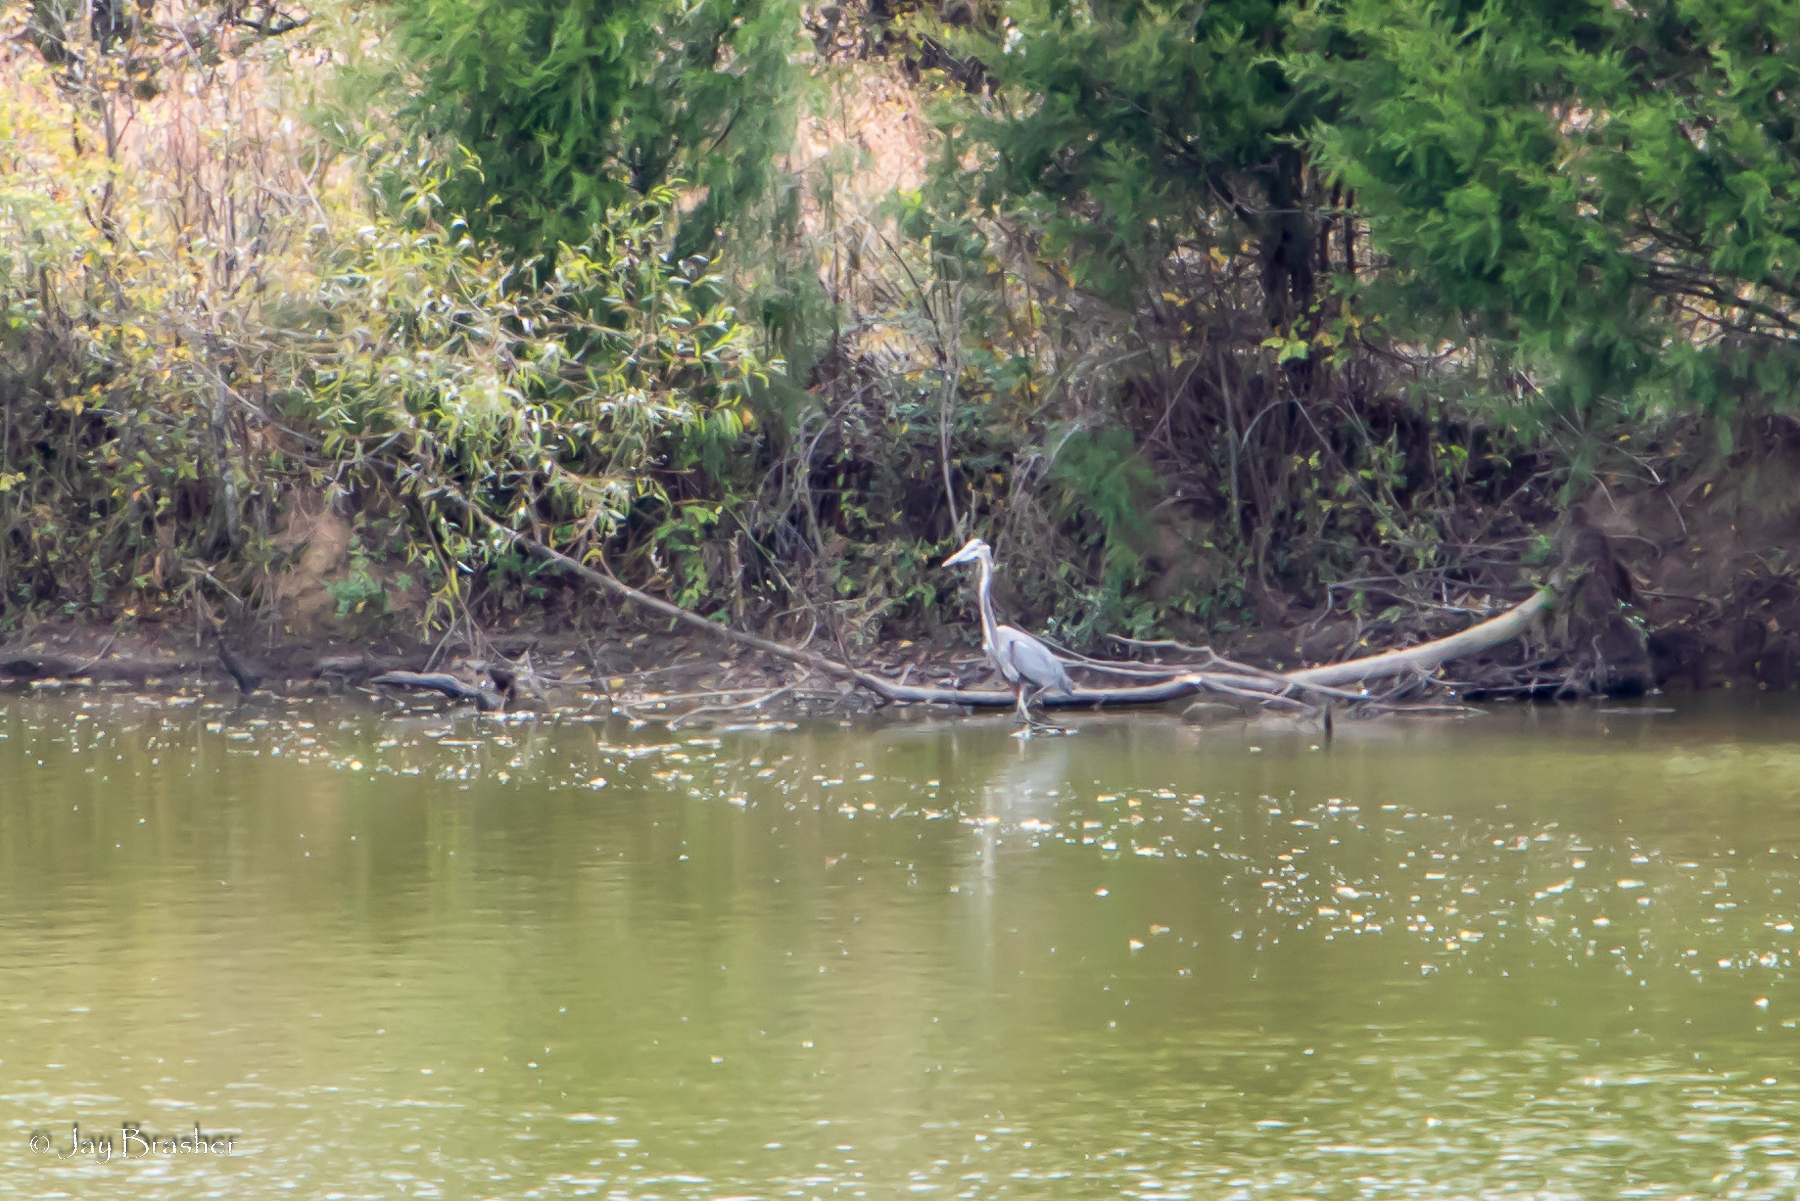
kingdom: Animalia
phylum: Chordata
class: Aves
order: Pelecaniformes
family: Ardeidae
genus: Ardea
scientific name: Ardea herodias
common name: Great blue heron
